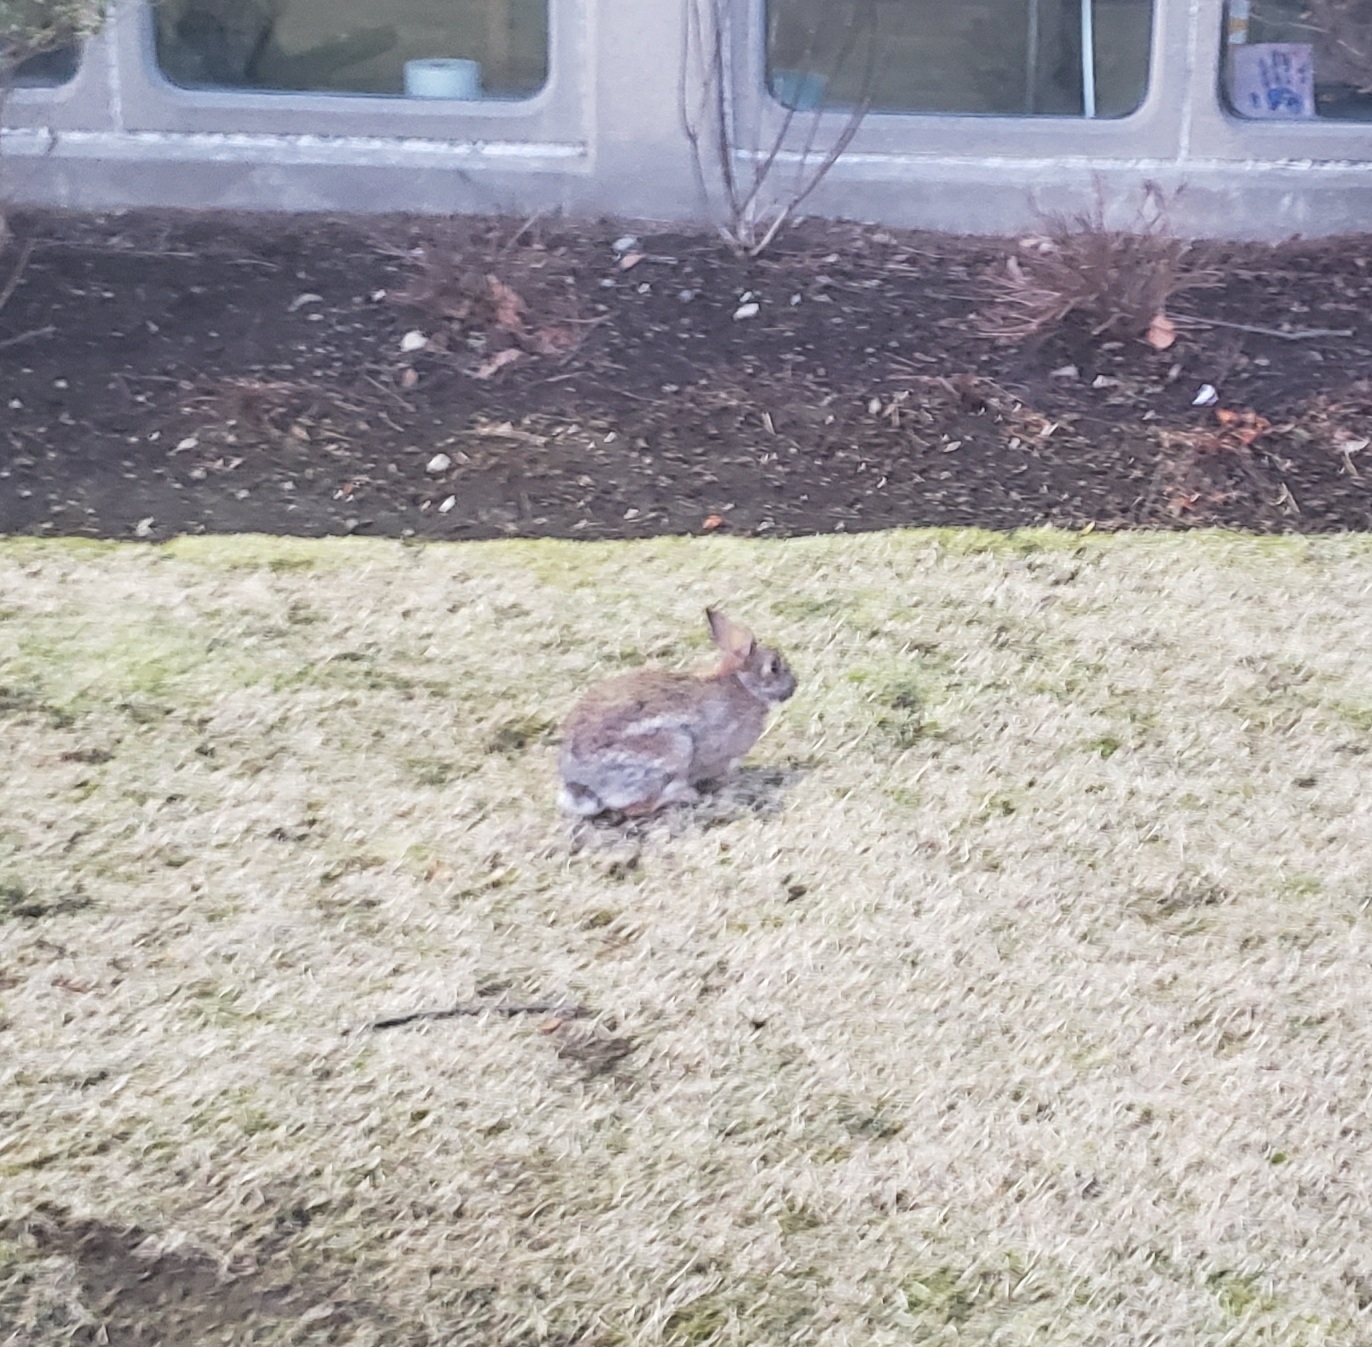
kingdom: Animalia
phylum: Chordata
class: Mammalia
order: Lagomorpha
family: Leporidae
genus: Sylvilagus
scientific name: Sylvilagus floridanus
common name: Eastern cottontail
